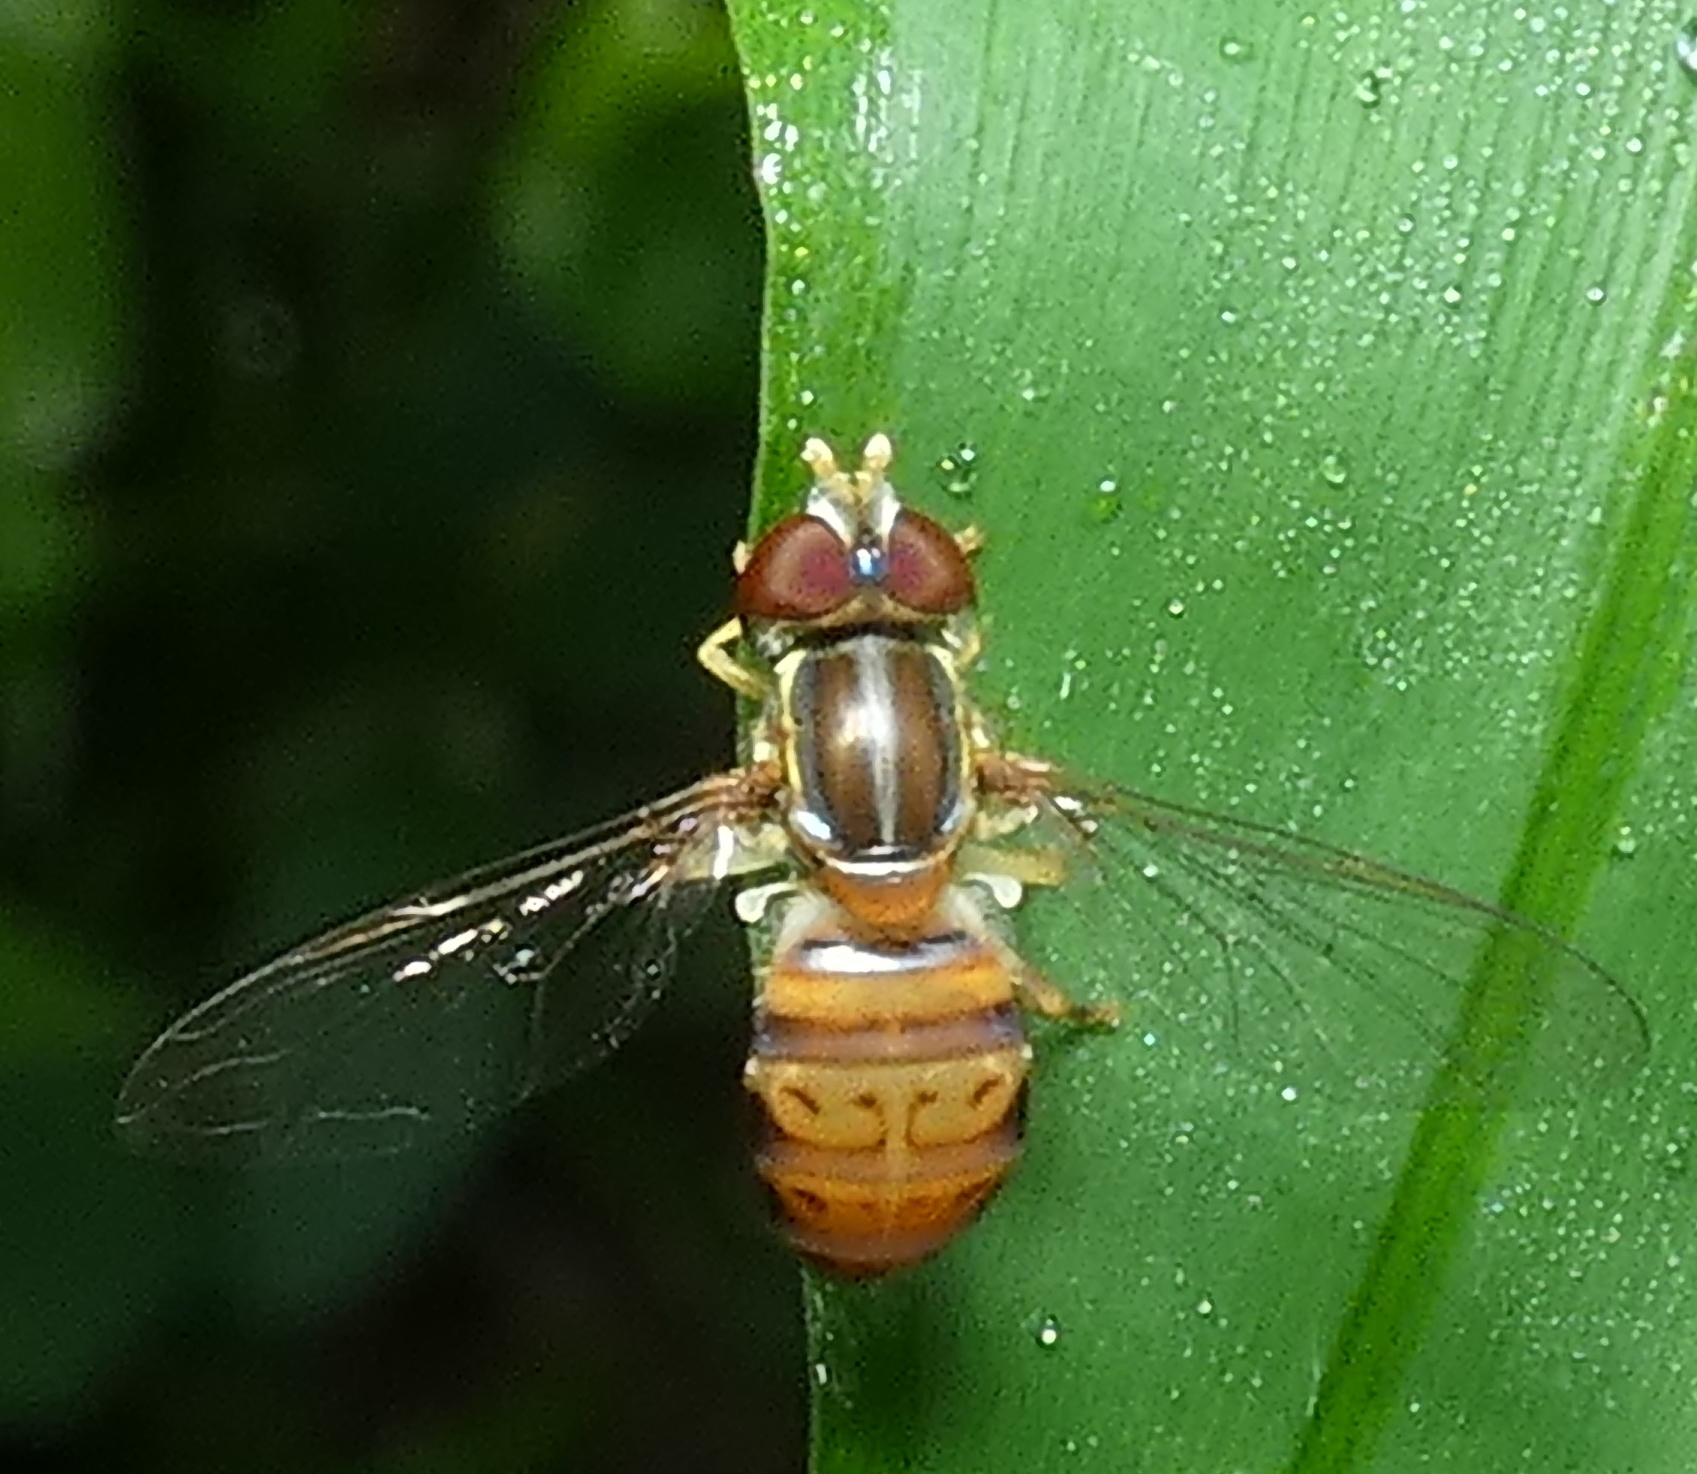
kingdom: Animalia
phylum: Arthropoda
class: Insecta
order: Diptera
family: Syrphidae
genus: Toxomerus
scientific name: Toxomerus pulchellus
